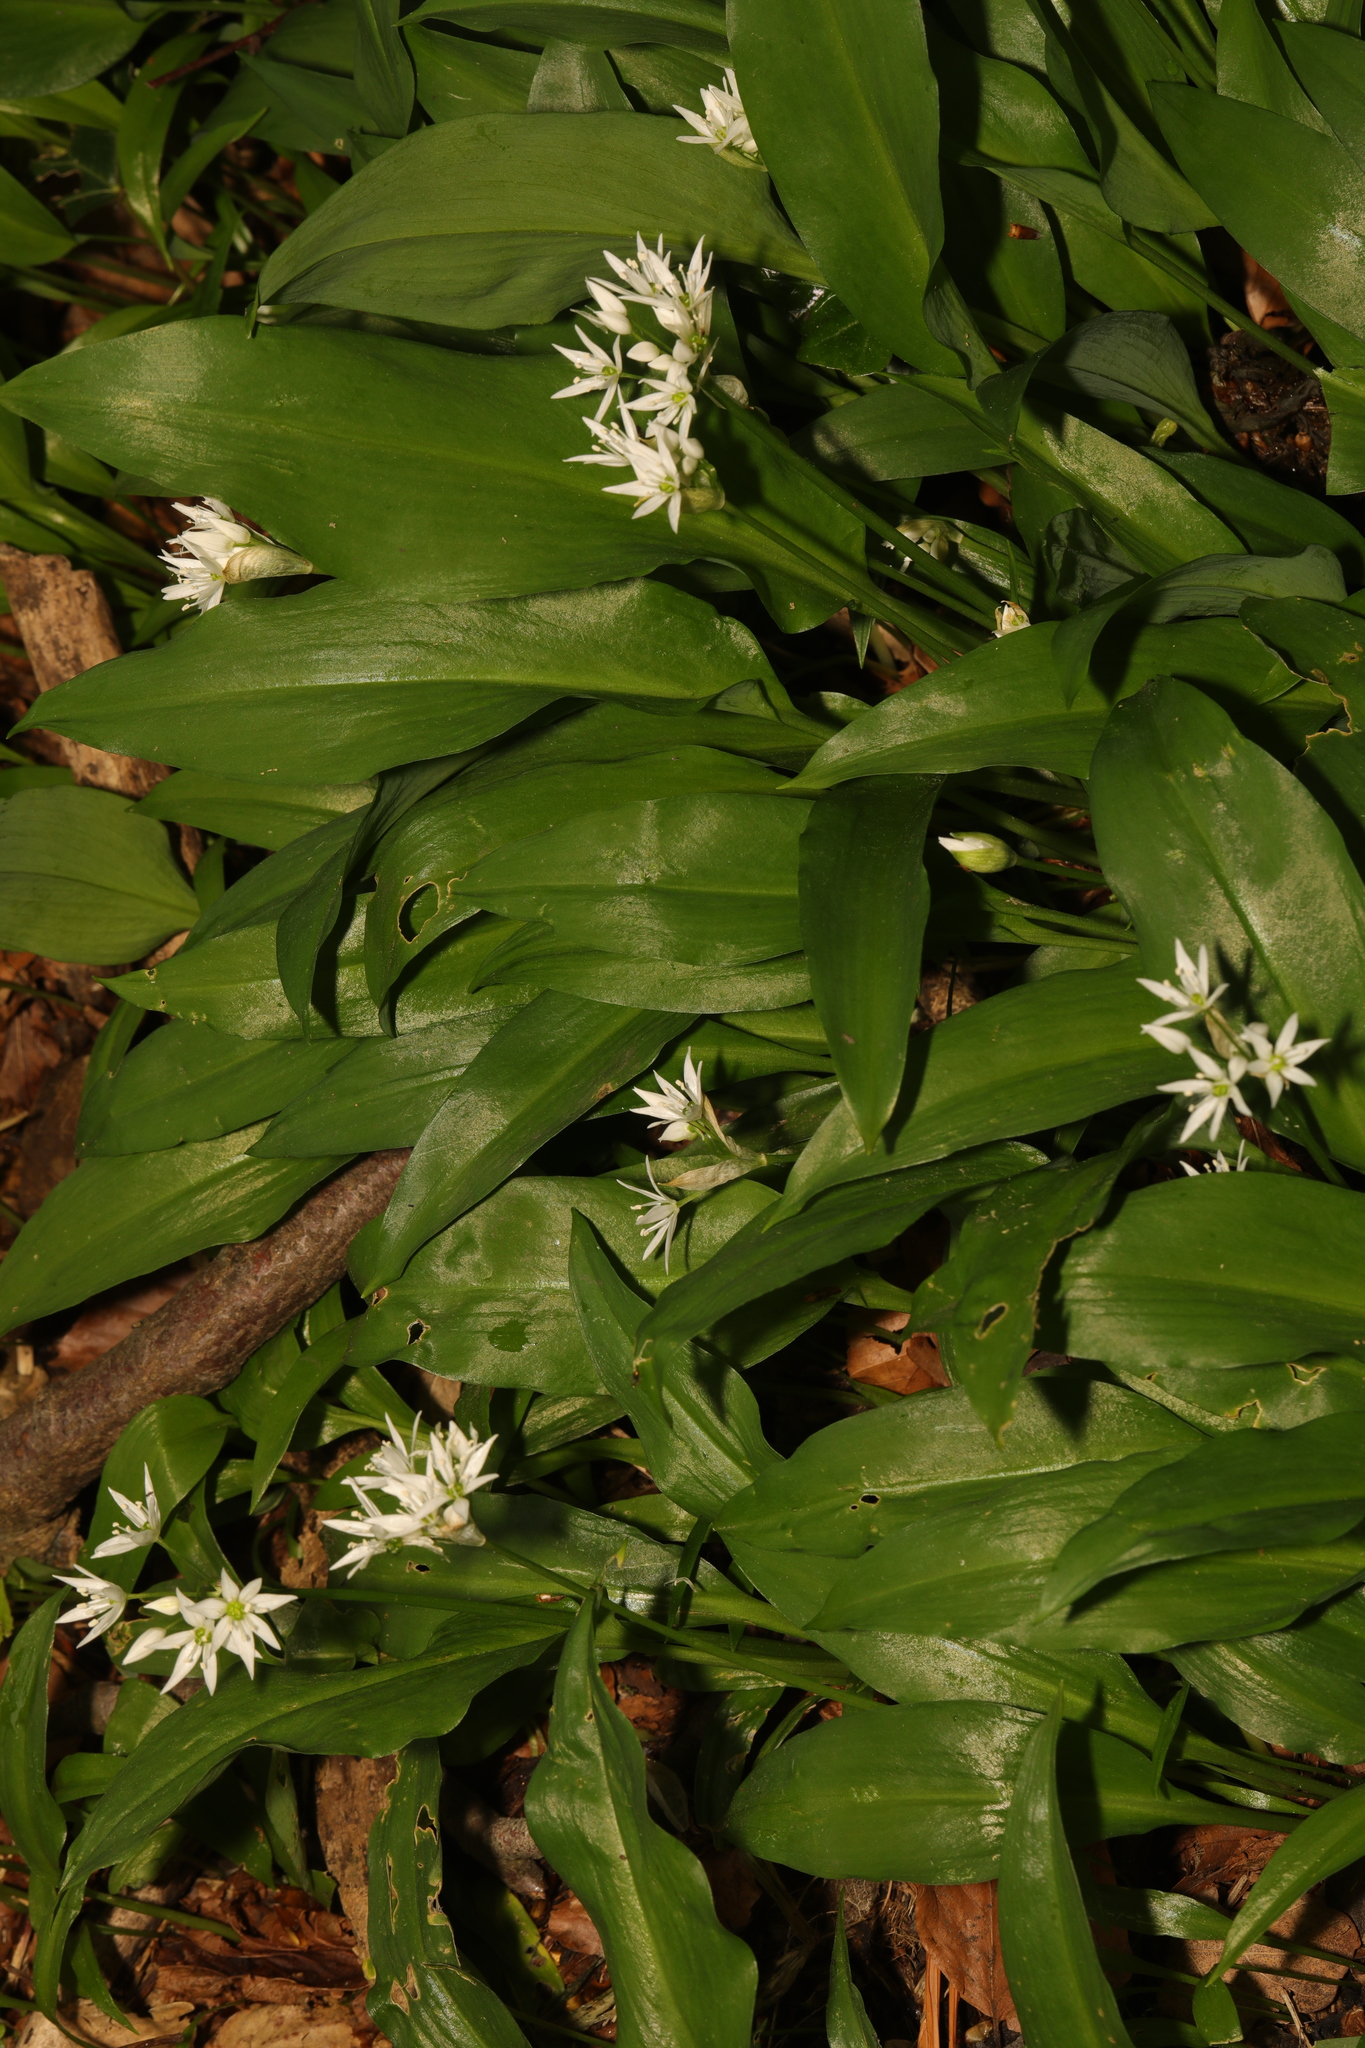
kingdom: Plantae
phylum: Tracheophyta
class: Liliopsida
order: Asparagales
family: Amaryllidaceae
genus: Allium
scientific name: Allium ursinum
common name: Ramsons
